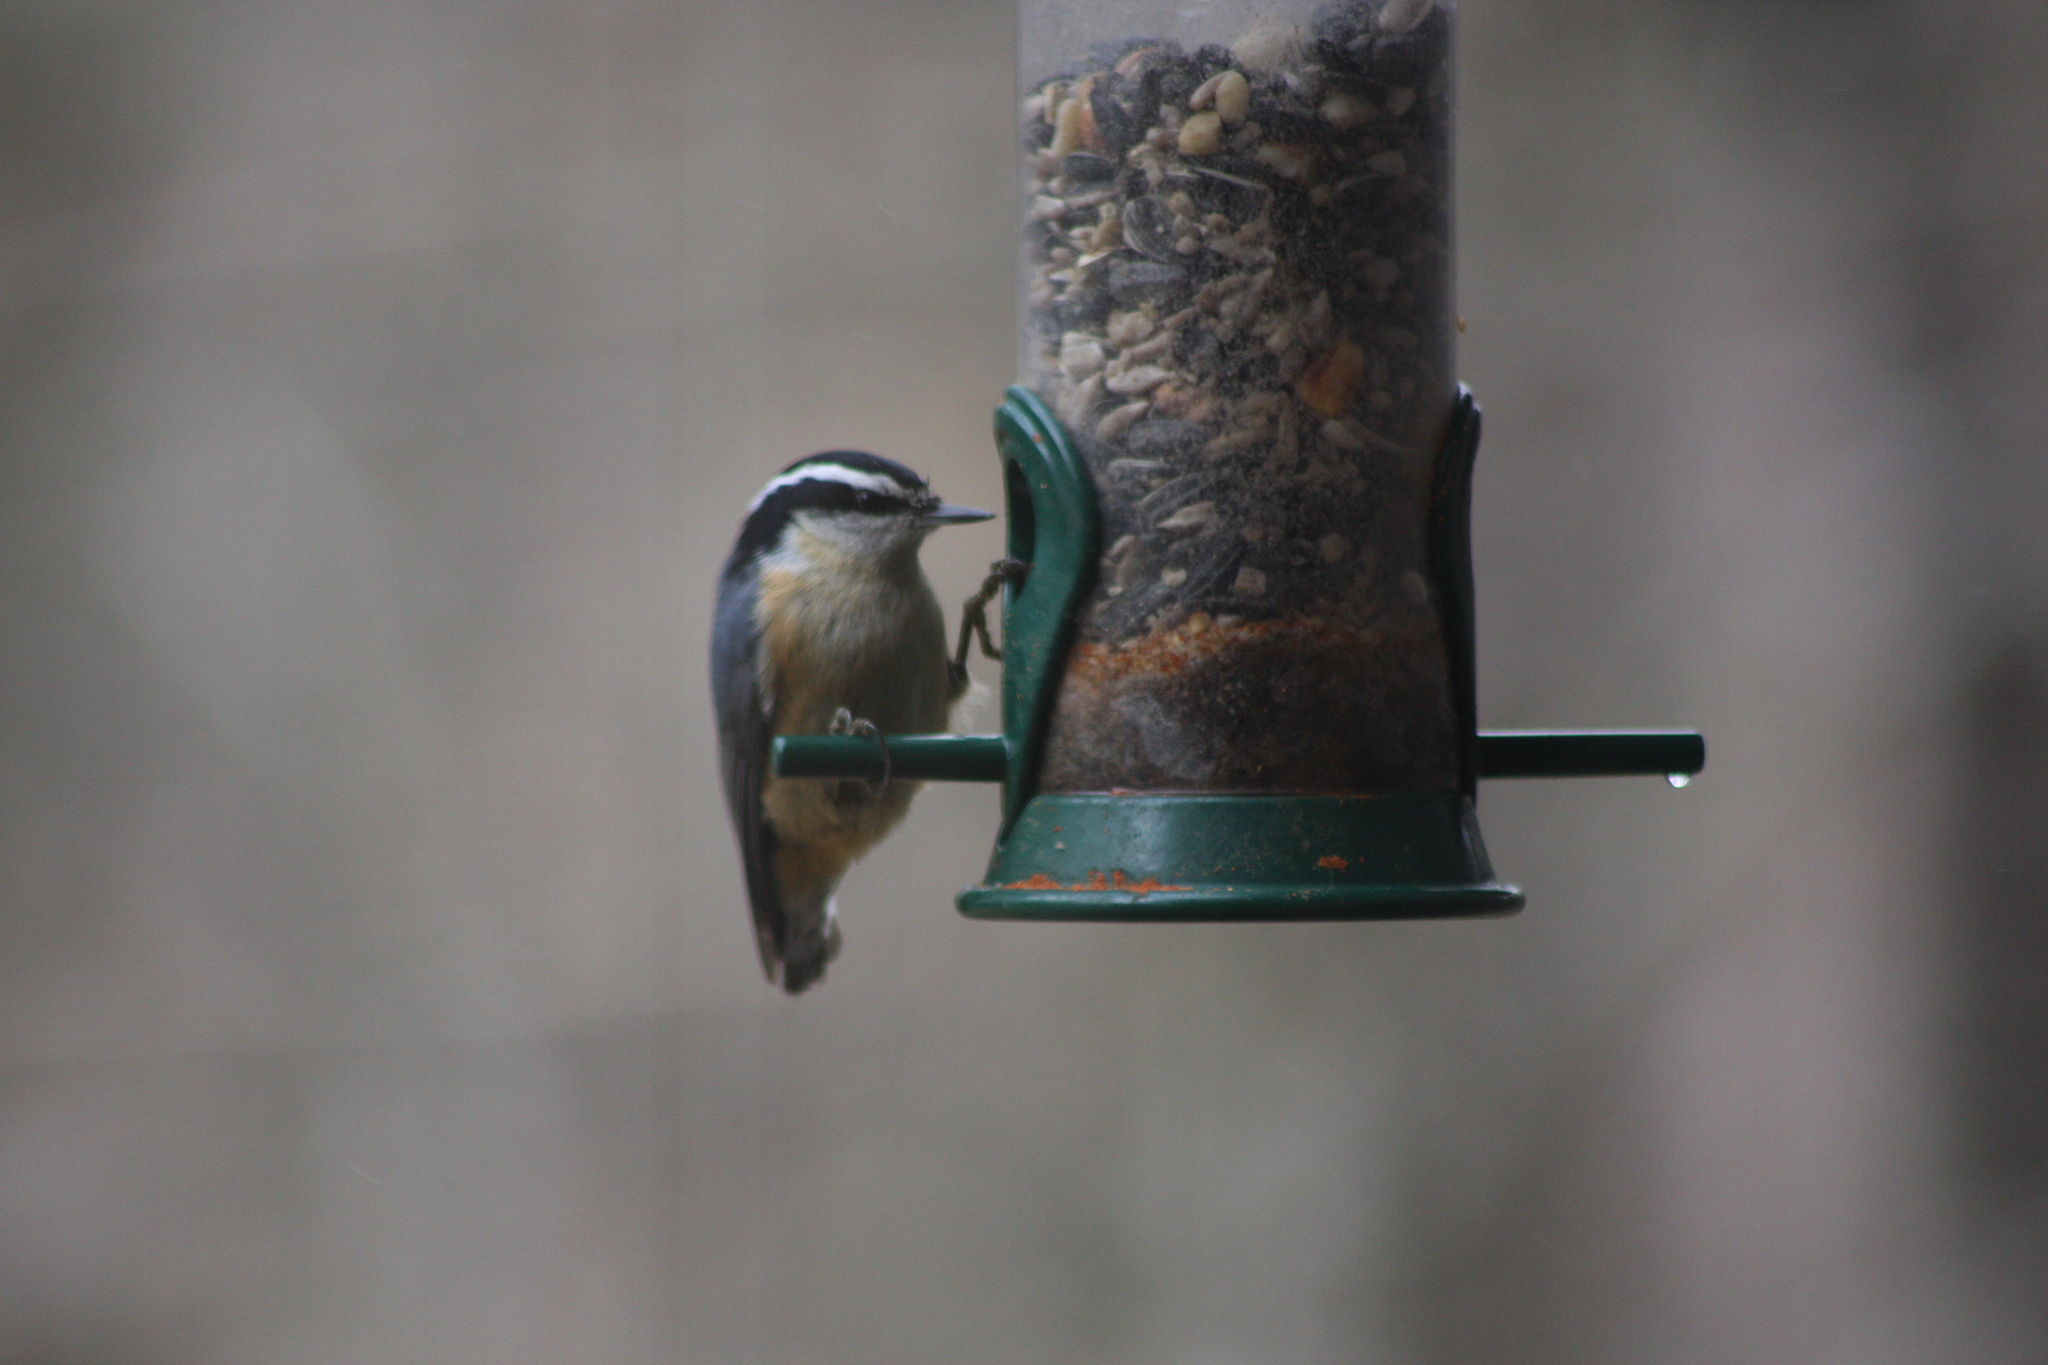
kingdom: Animalia
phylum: Chordata
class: Aves
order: Passeriformes
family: Sittidae
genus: Sitta
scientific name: Sitta canadensis
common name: Red-breasted nuthatch
